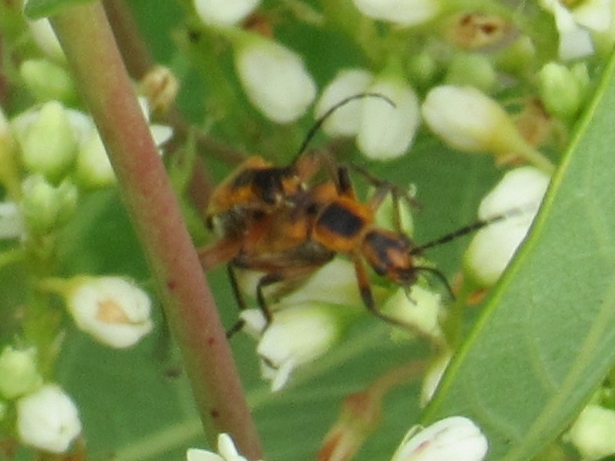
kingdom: Animalia
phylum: Arthropoda
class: Insecta
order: Coleoptera
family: Cantharidae
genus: Chauliognathus
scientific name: Chauliognathus marginatus
